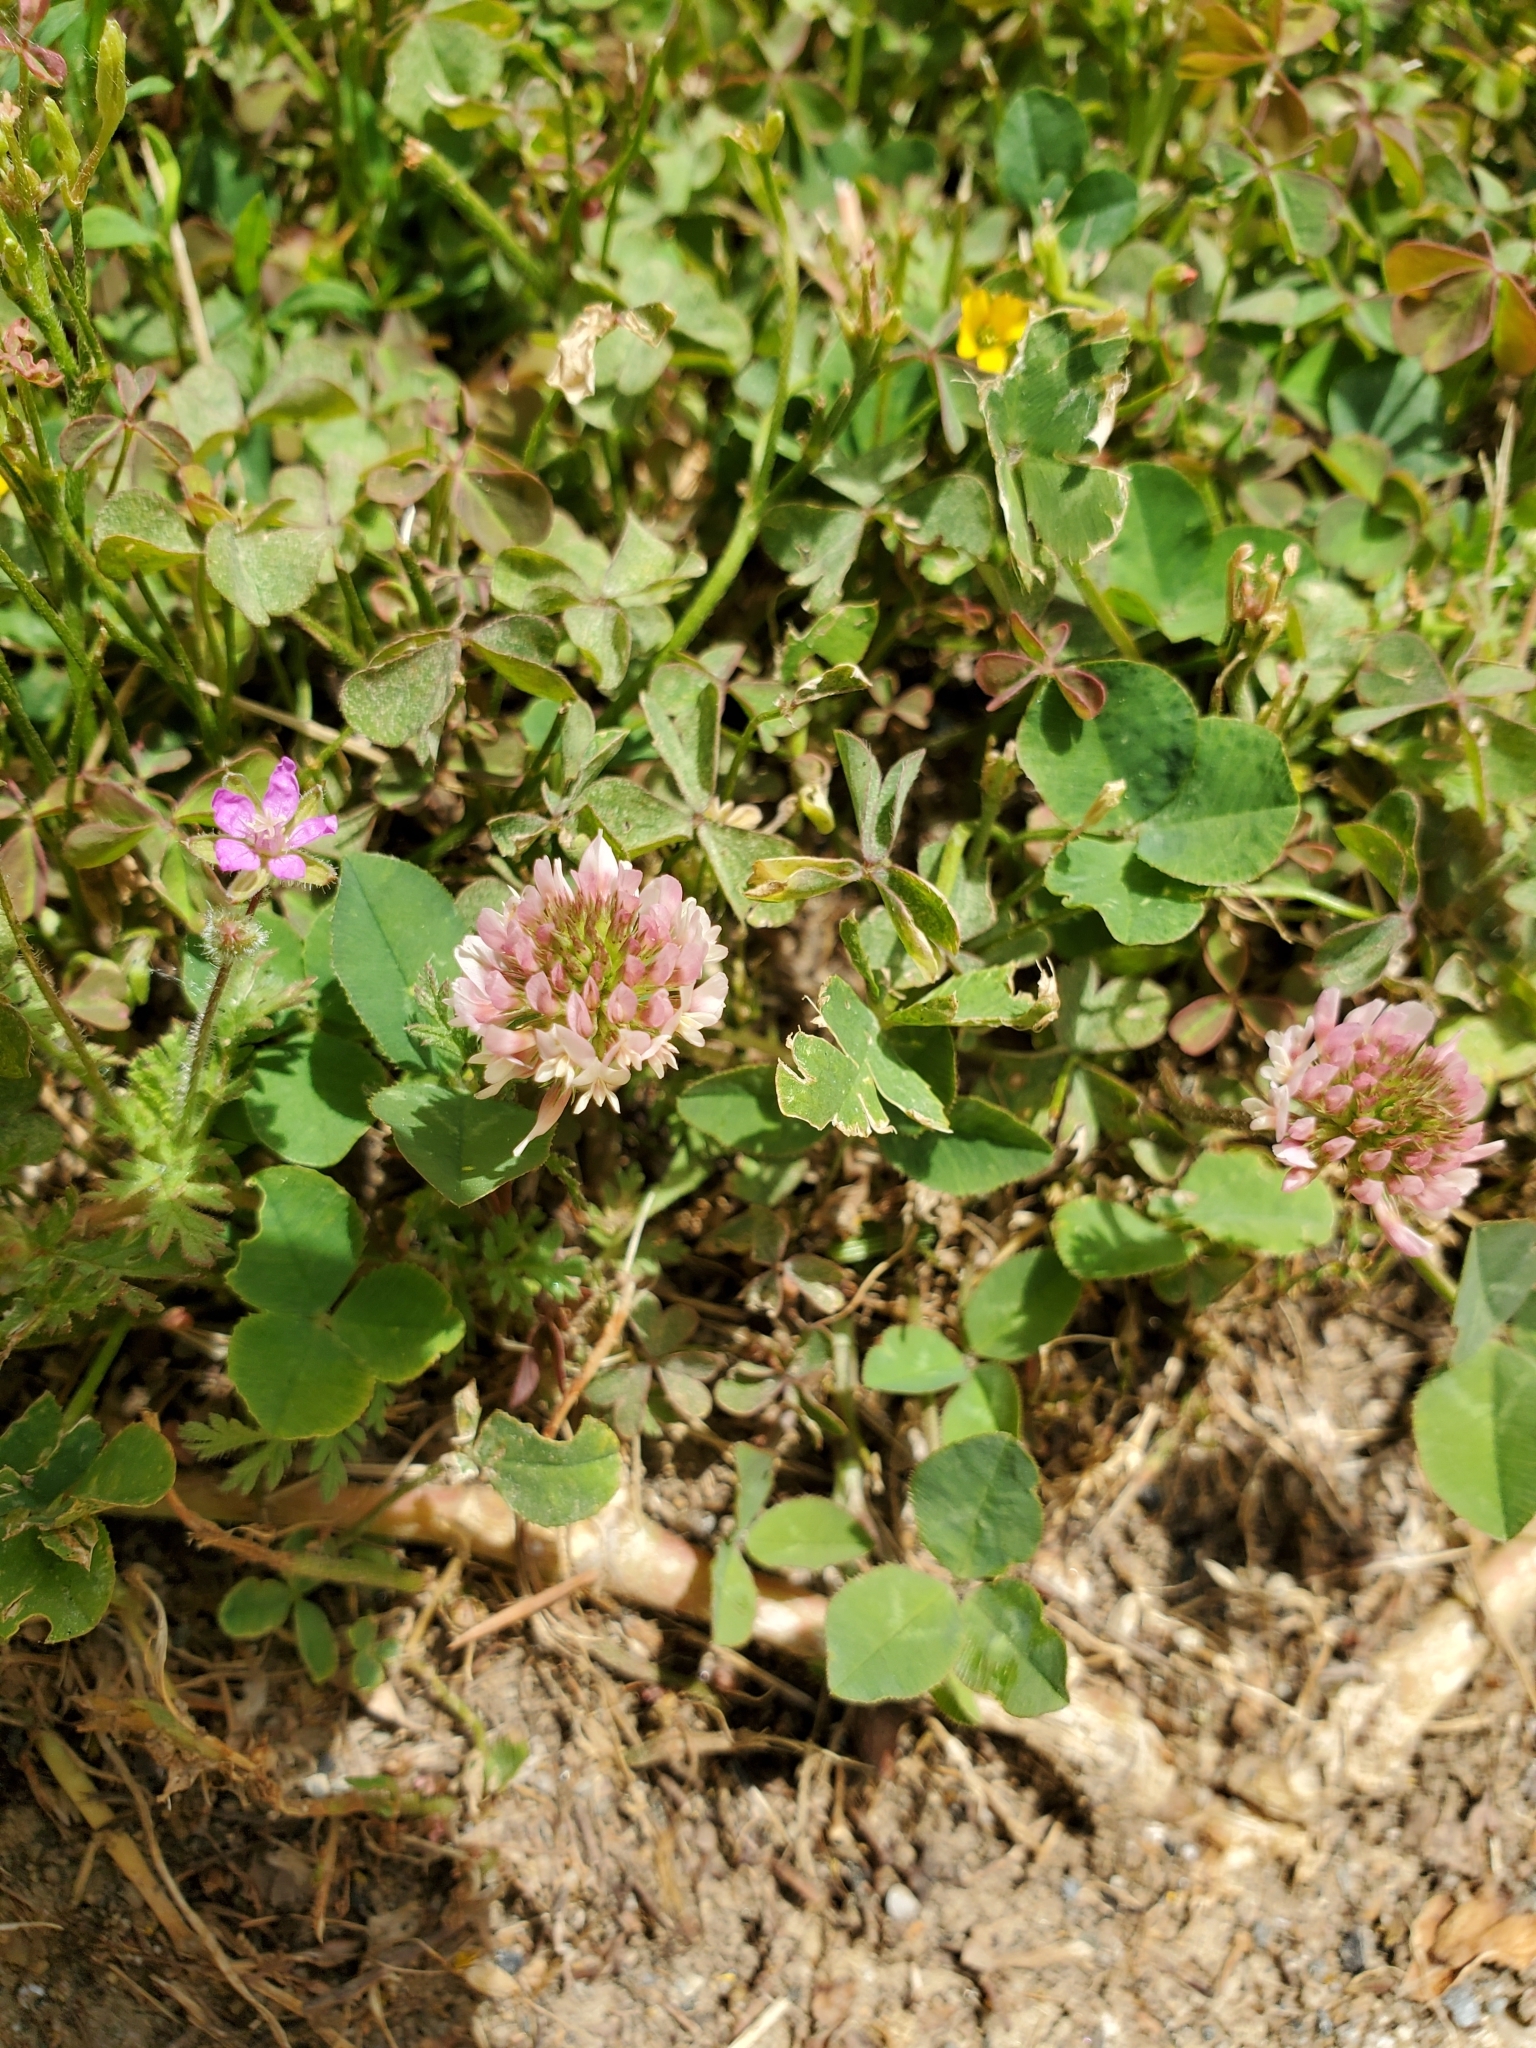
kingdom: Plantae
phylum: Tracheophyta
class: Magnoliopsida
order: Fabales
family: Fabaceae
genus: Trifolium
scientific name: Trifolium repens
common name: White clover
